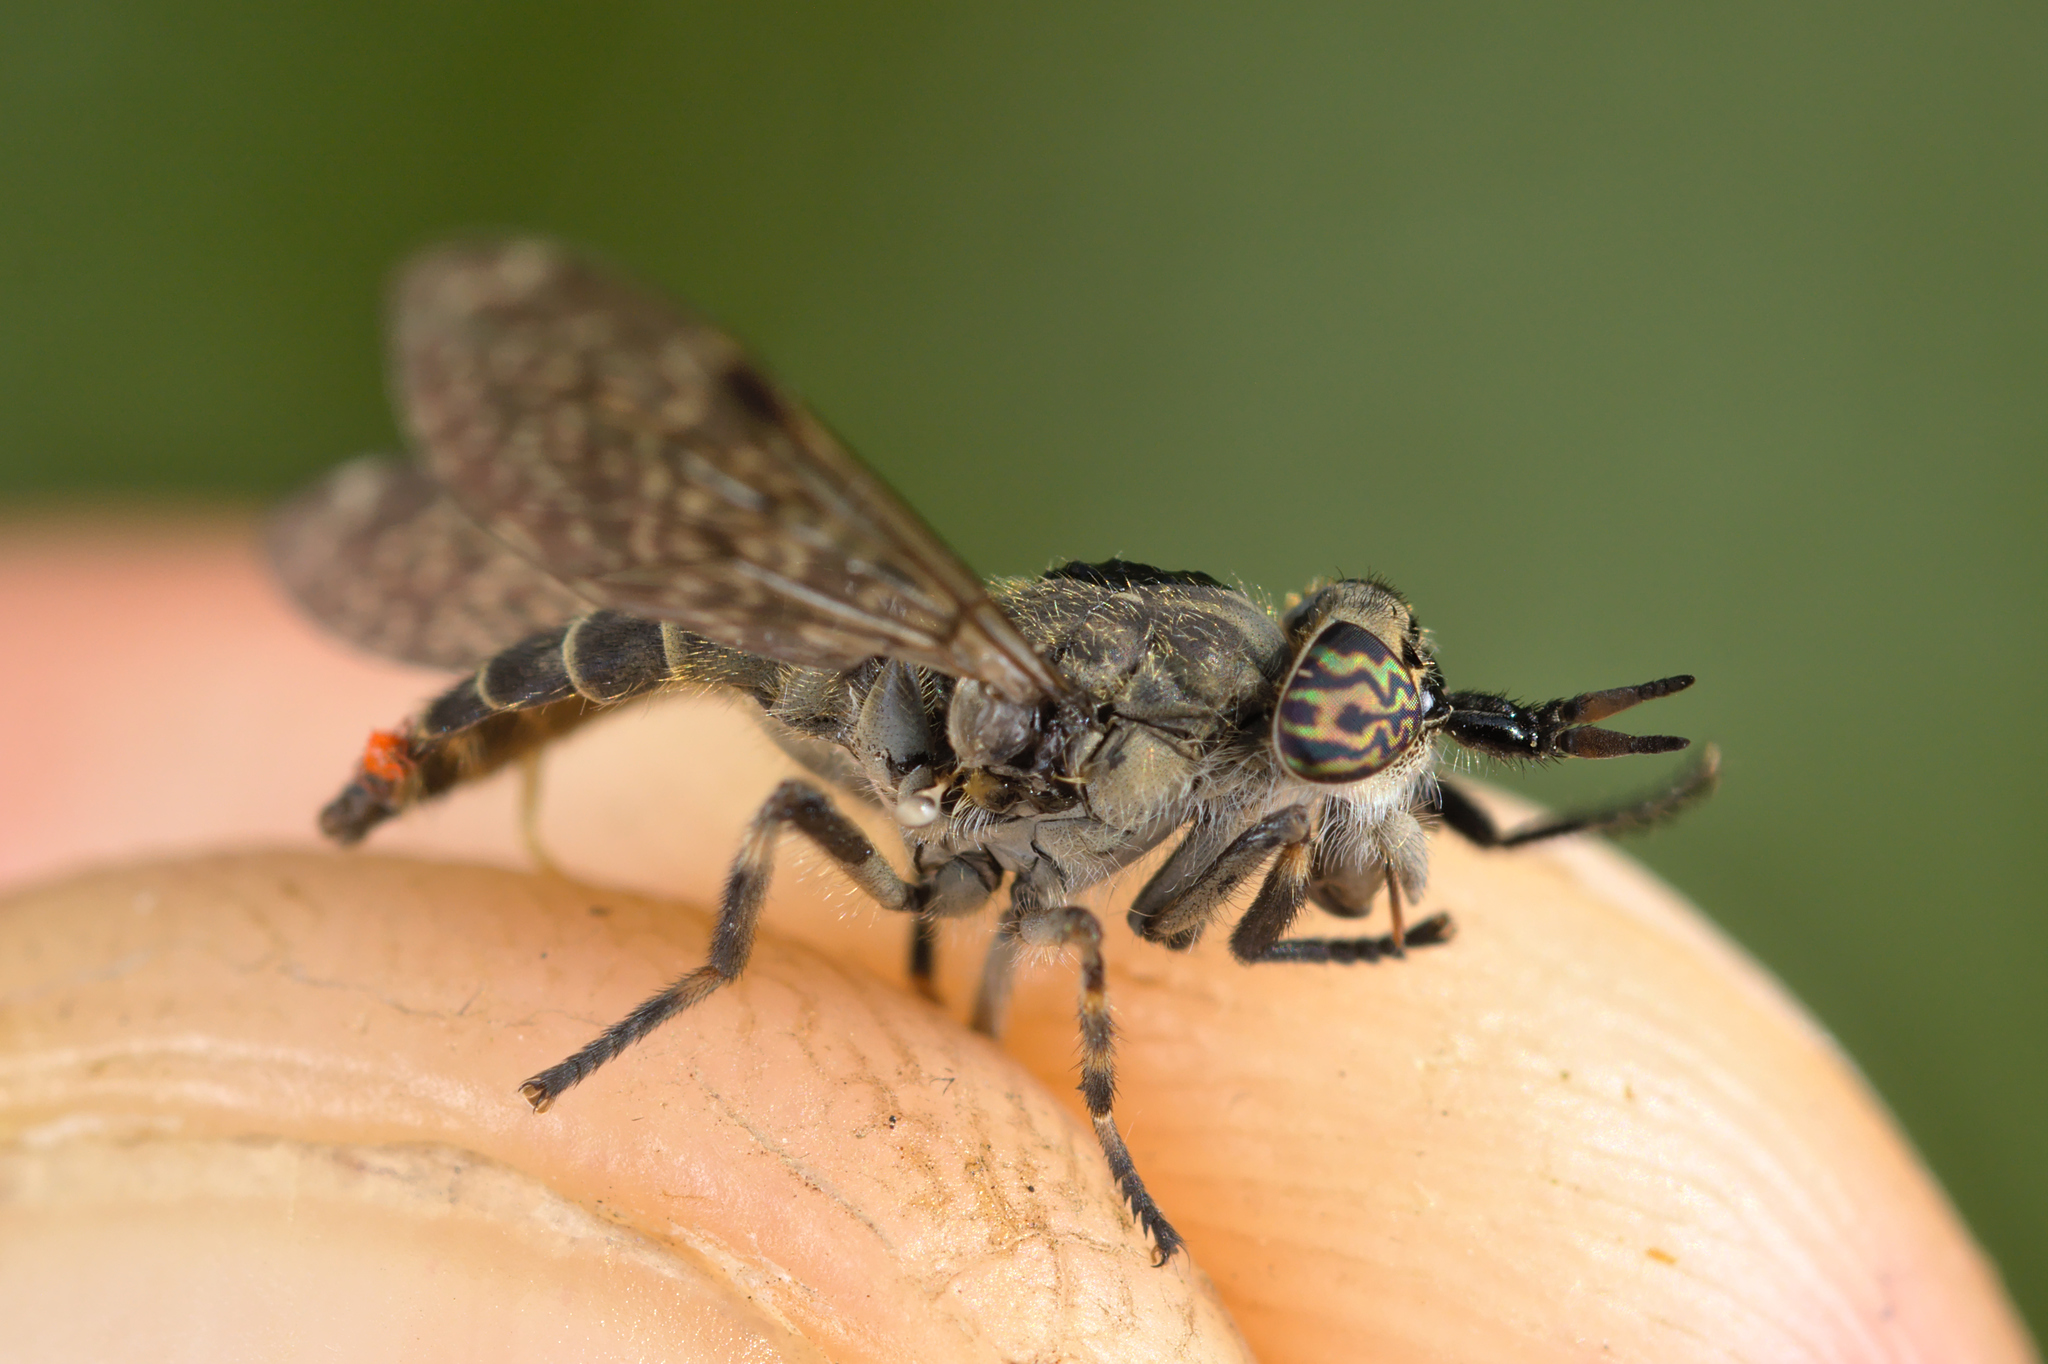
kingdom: Animalia
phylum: Arthropoda
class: Insecta
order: Diptera
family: Tabanidae
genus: Haematopota
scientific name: Haematopota pluvialis
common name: Common horse fly
